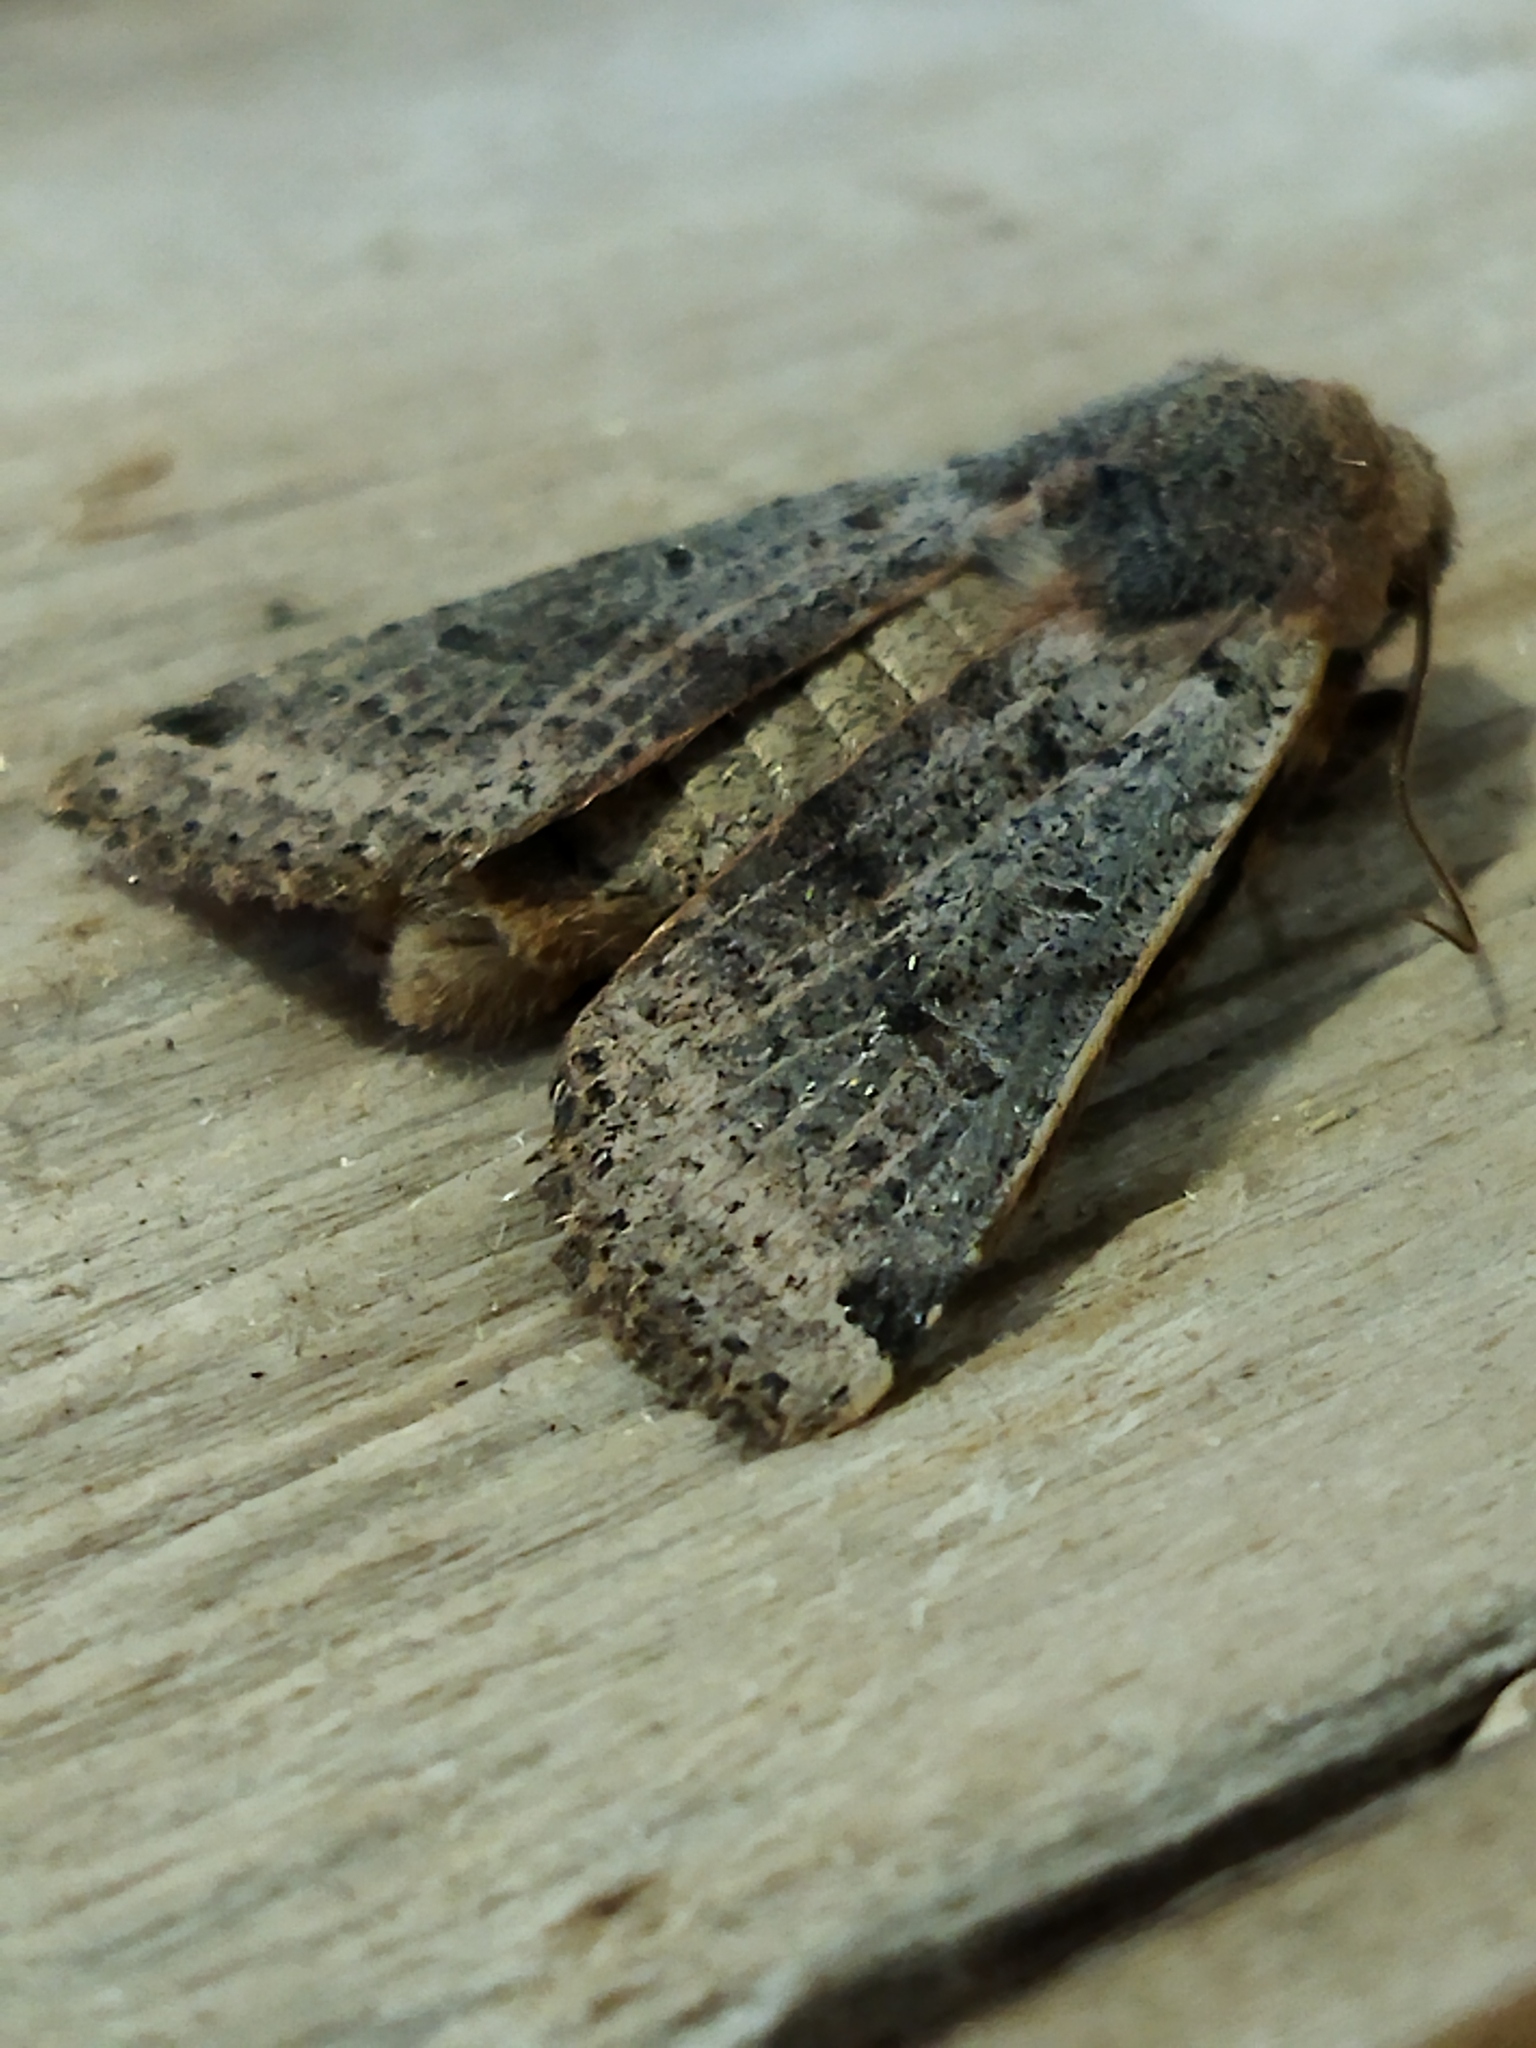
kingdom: Animalia
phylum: Arthropoda
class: Insecta
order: Lepidoptera
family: Noctuidae
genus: Agrochola
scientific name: Agrochola lychnidis
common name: Beaded chestnut
